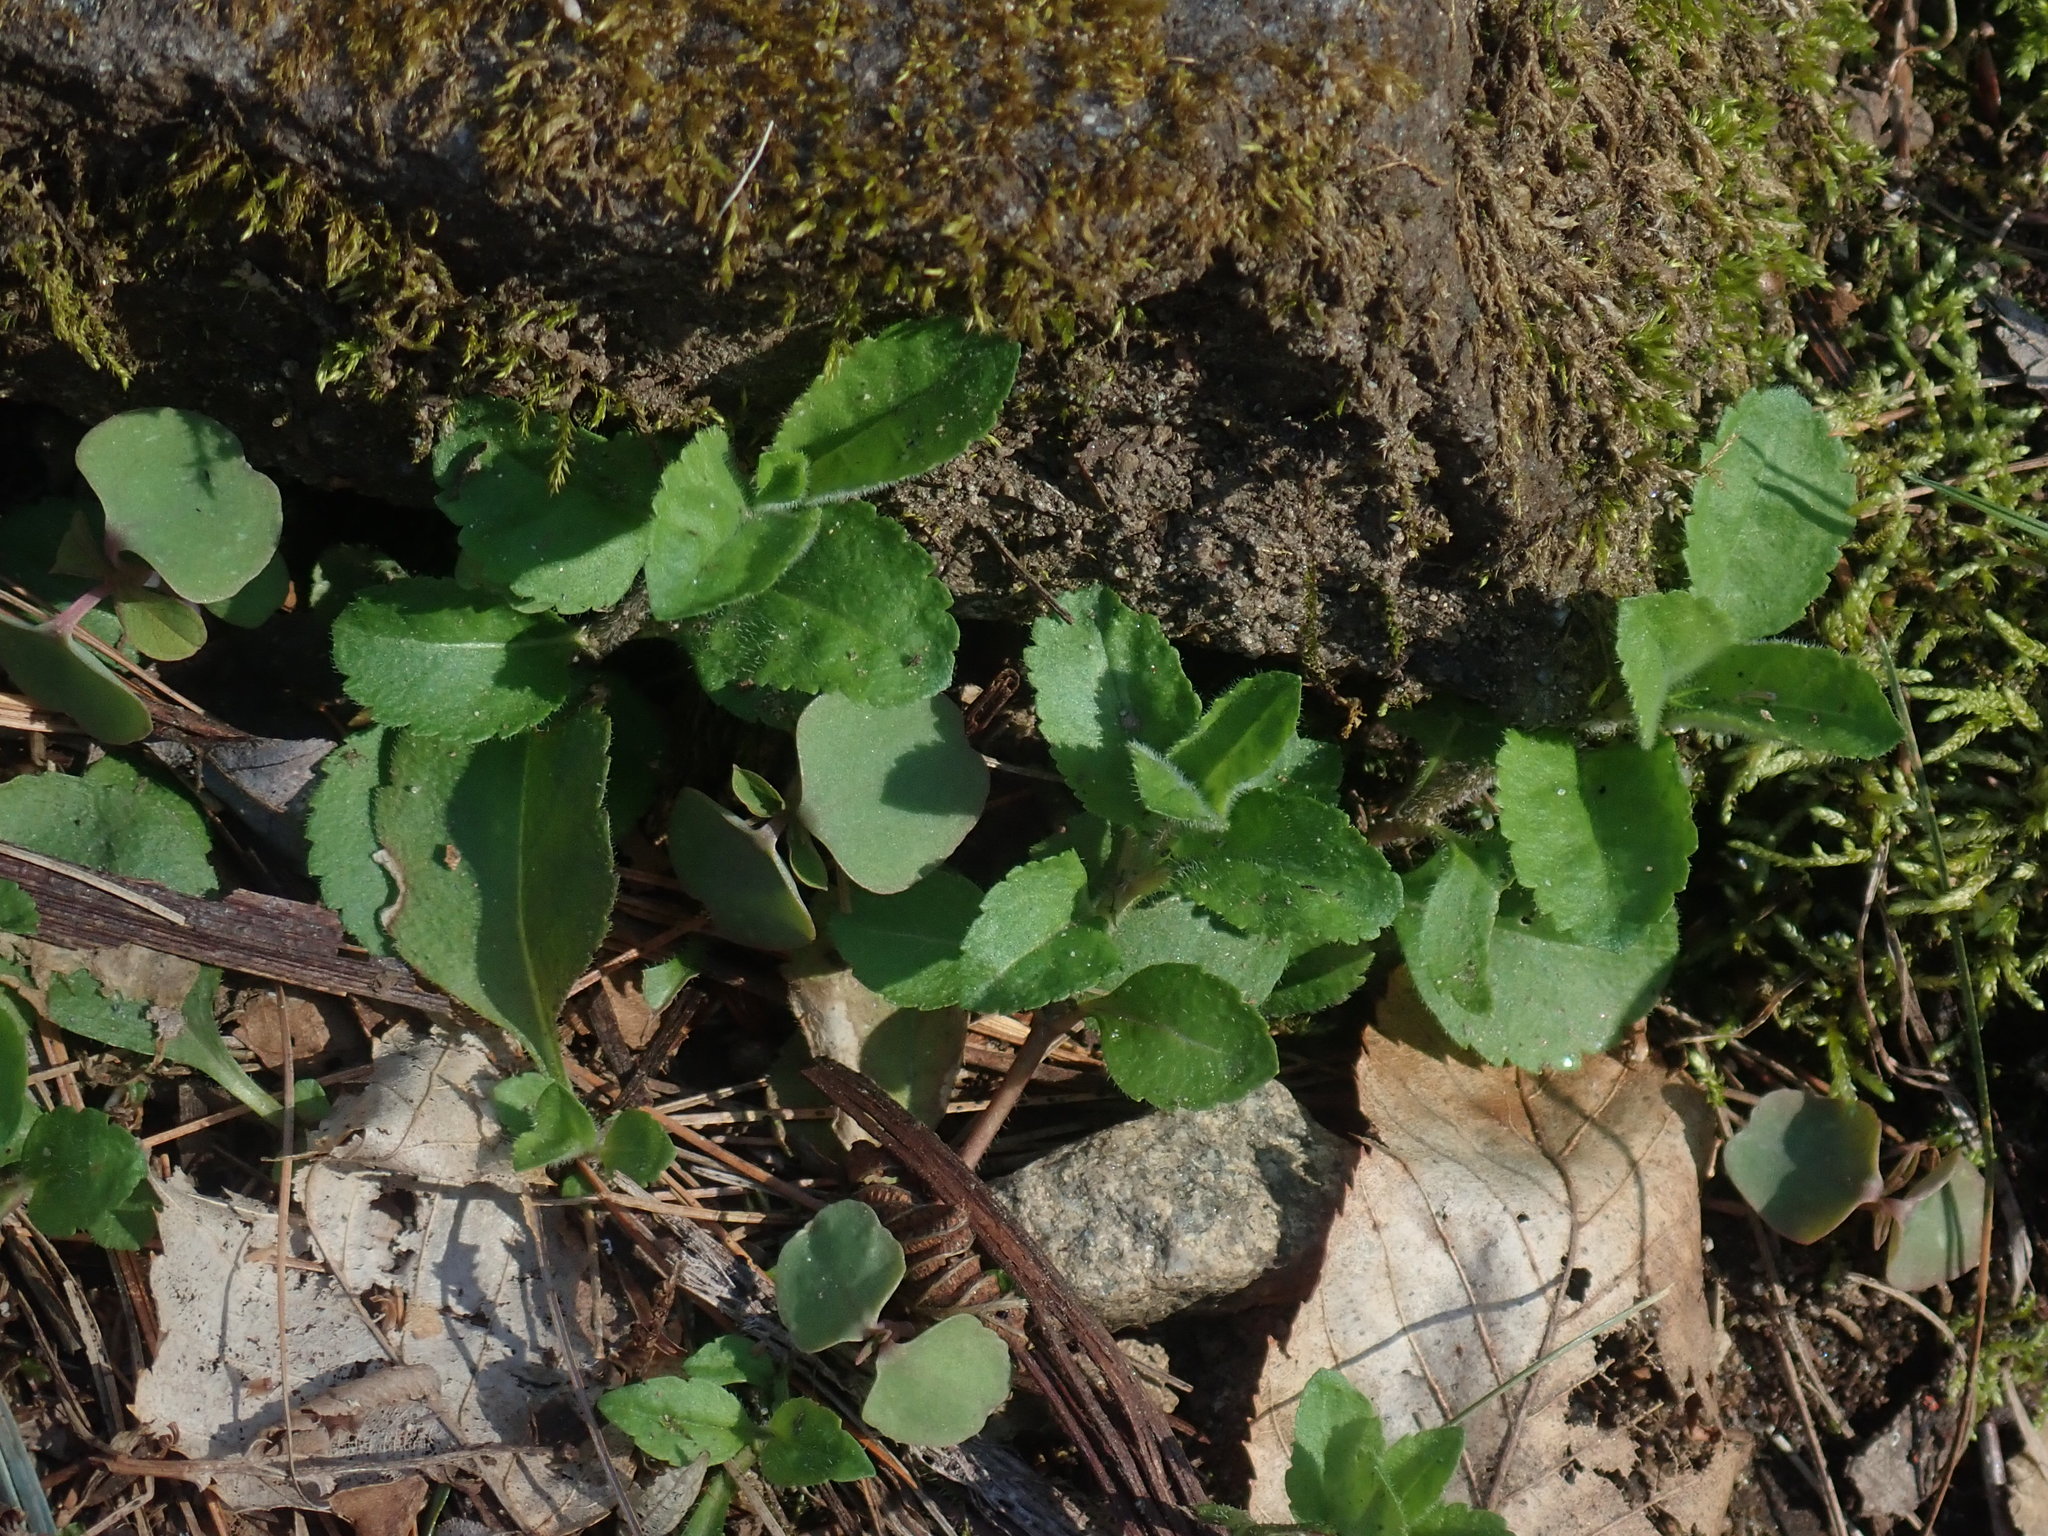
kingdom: Plantae
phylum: Tracheophyta
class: Magnoliopsida
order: Lamiales
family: Plantaginaceae
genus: Veronica
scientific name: Veronica officinalis
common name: Common speedwell
